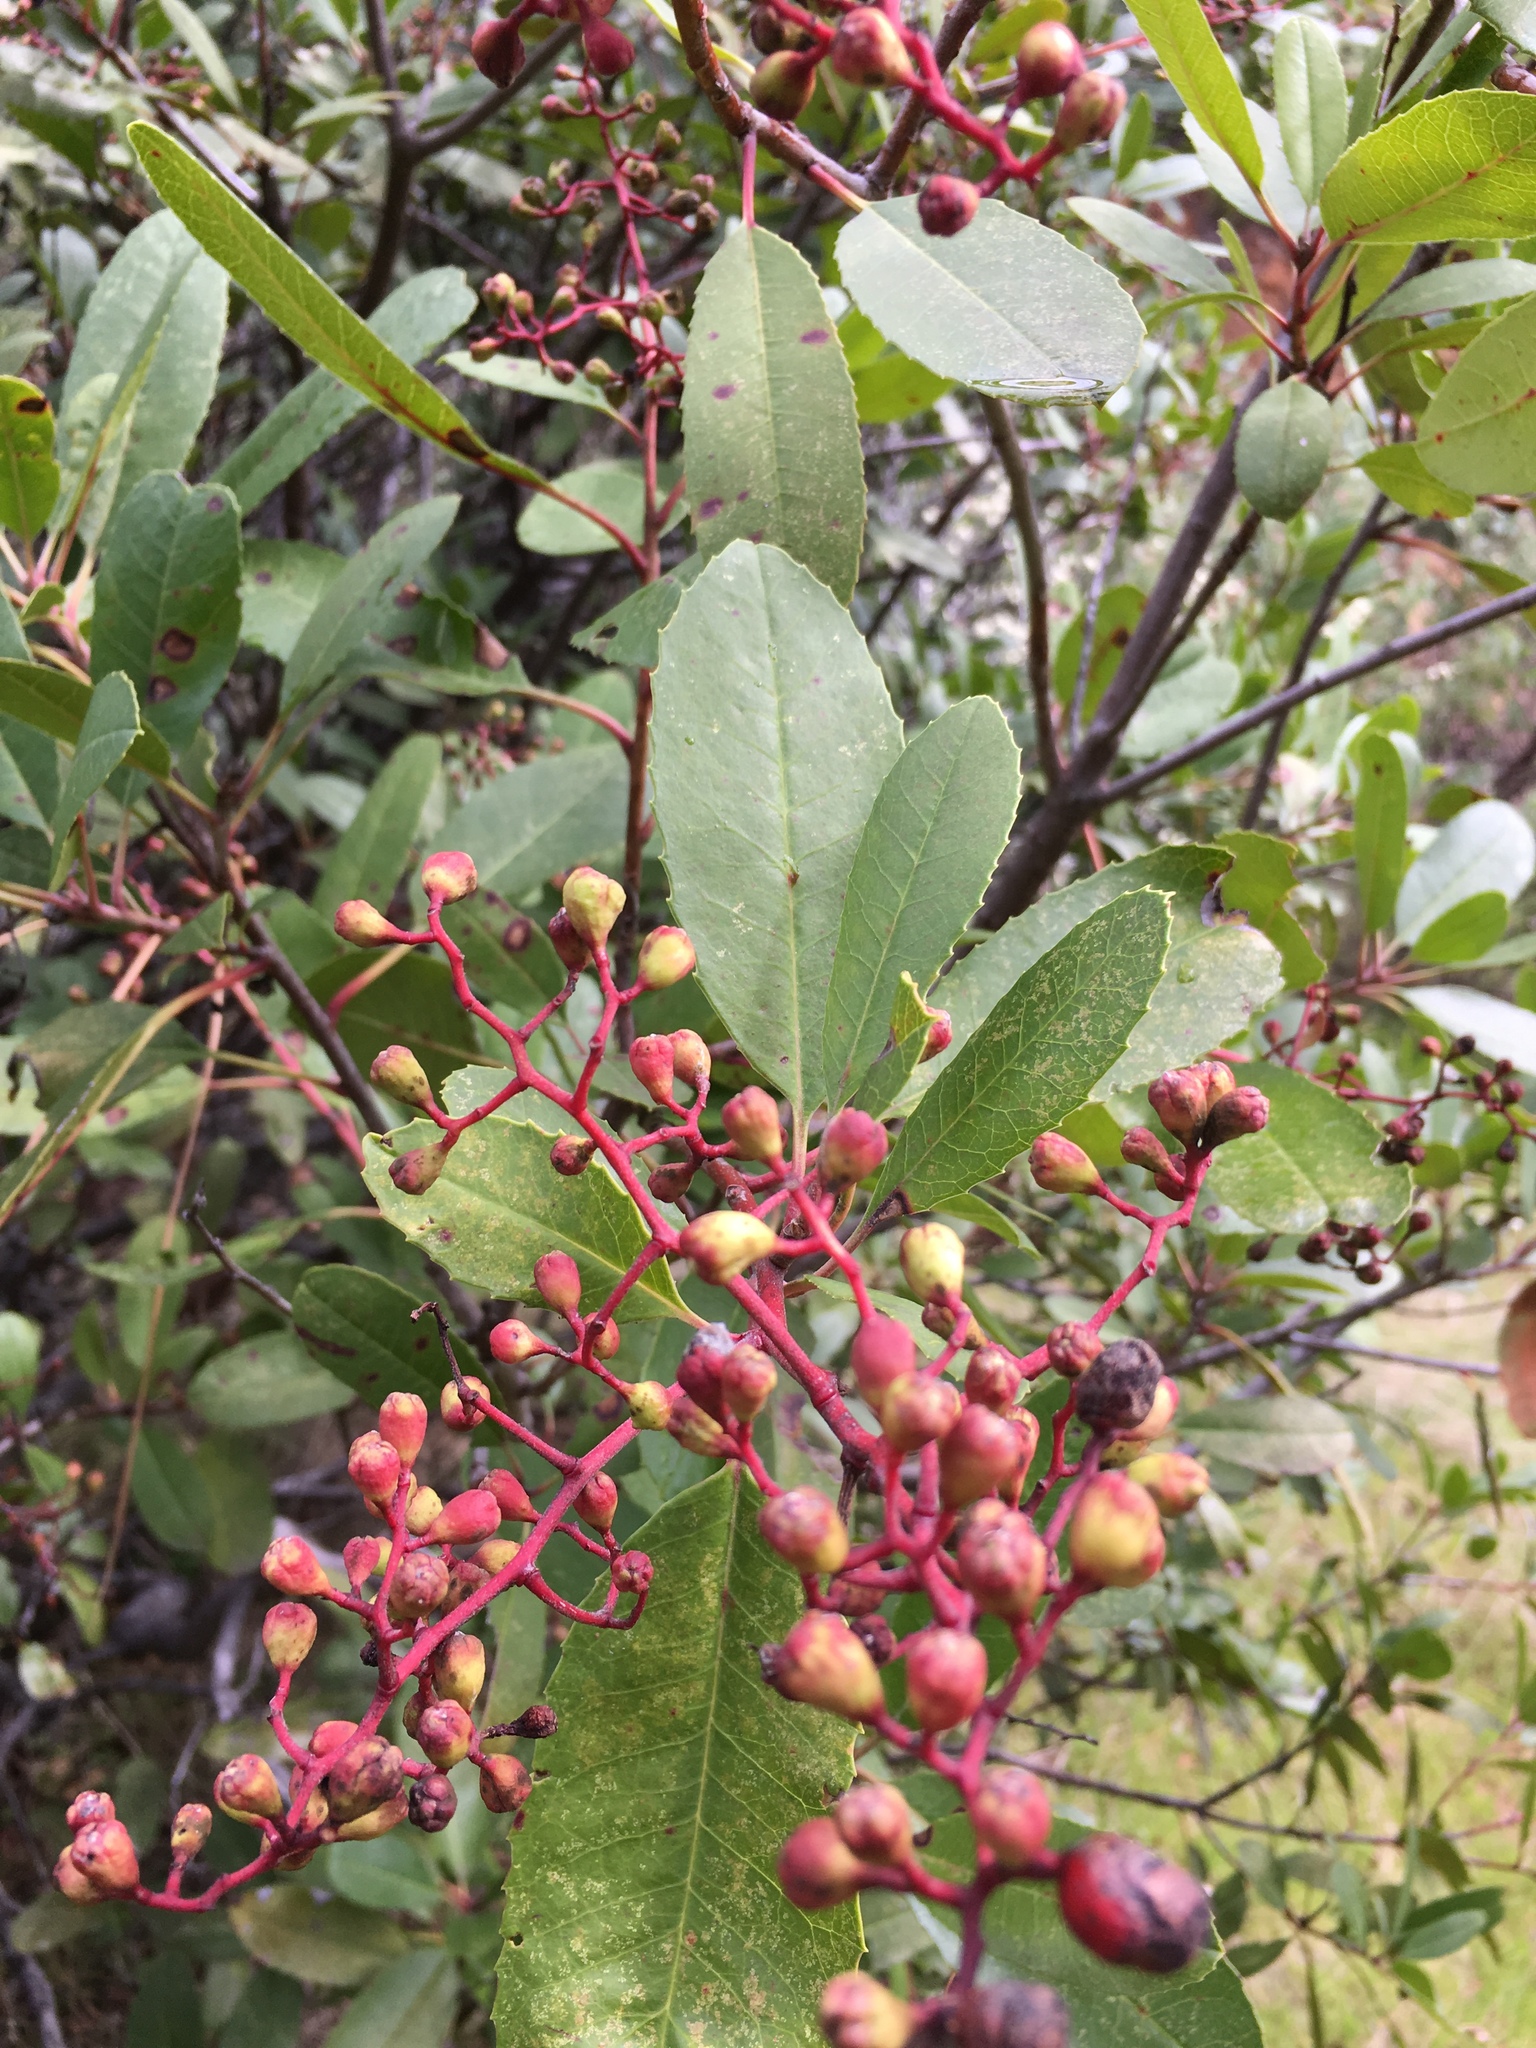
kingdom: Plantae
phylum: Tracheophyta
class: Magnoliopsida
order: Rosales
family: Rosaceae
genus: Heteromeles
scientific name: Heteromeles arbutifolia
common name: California-holly
